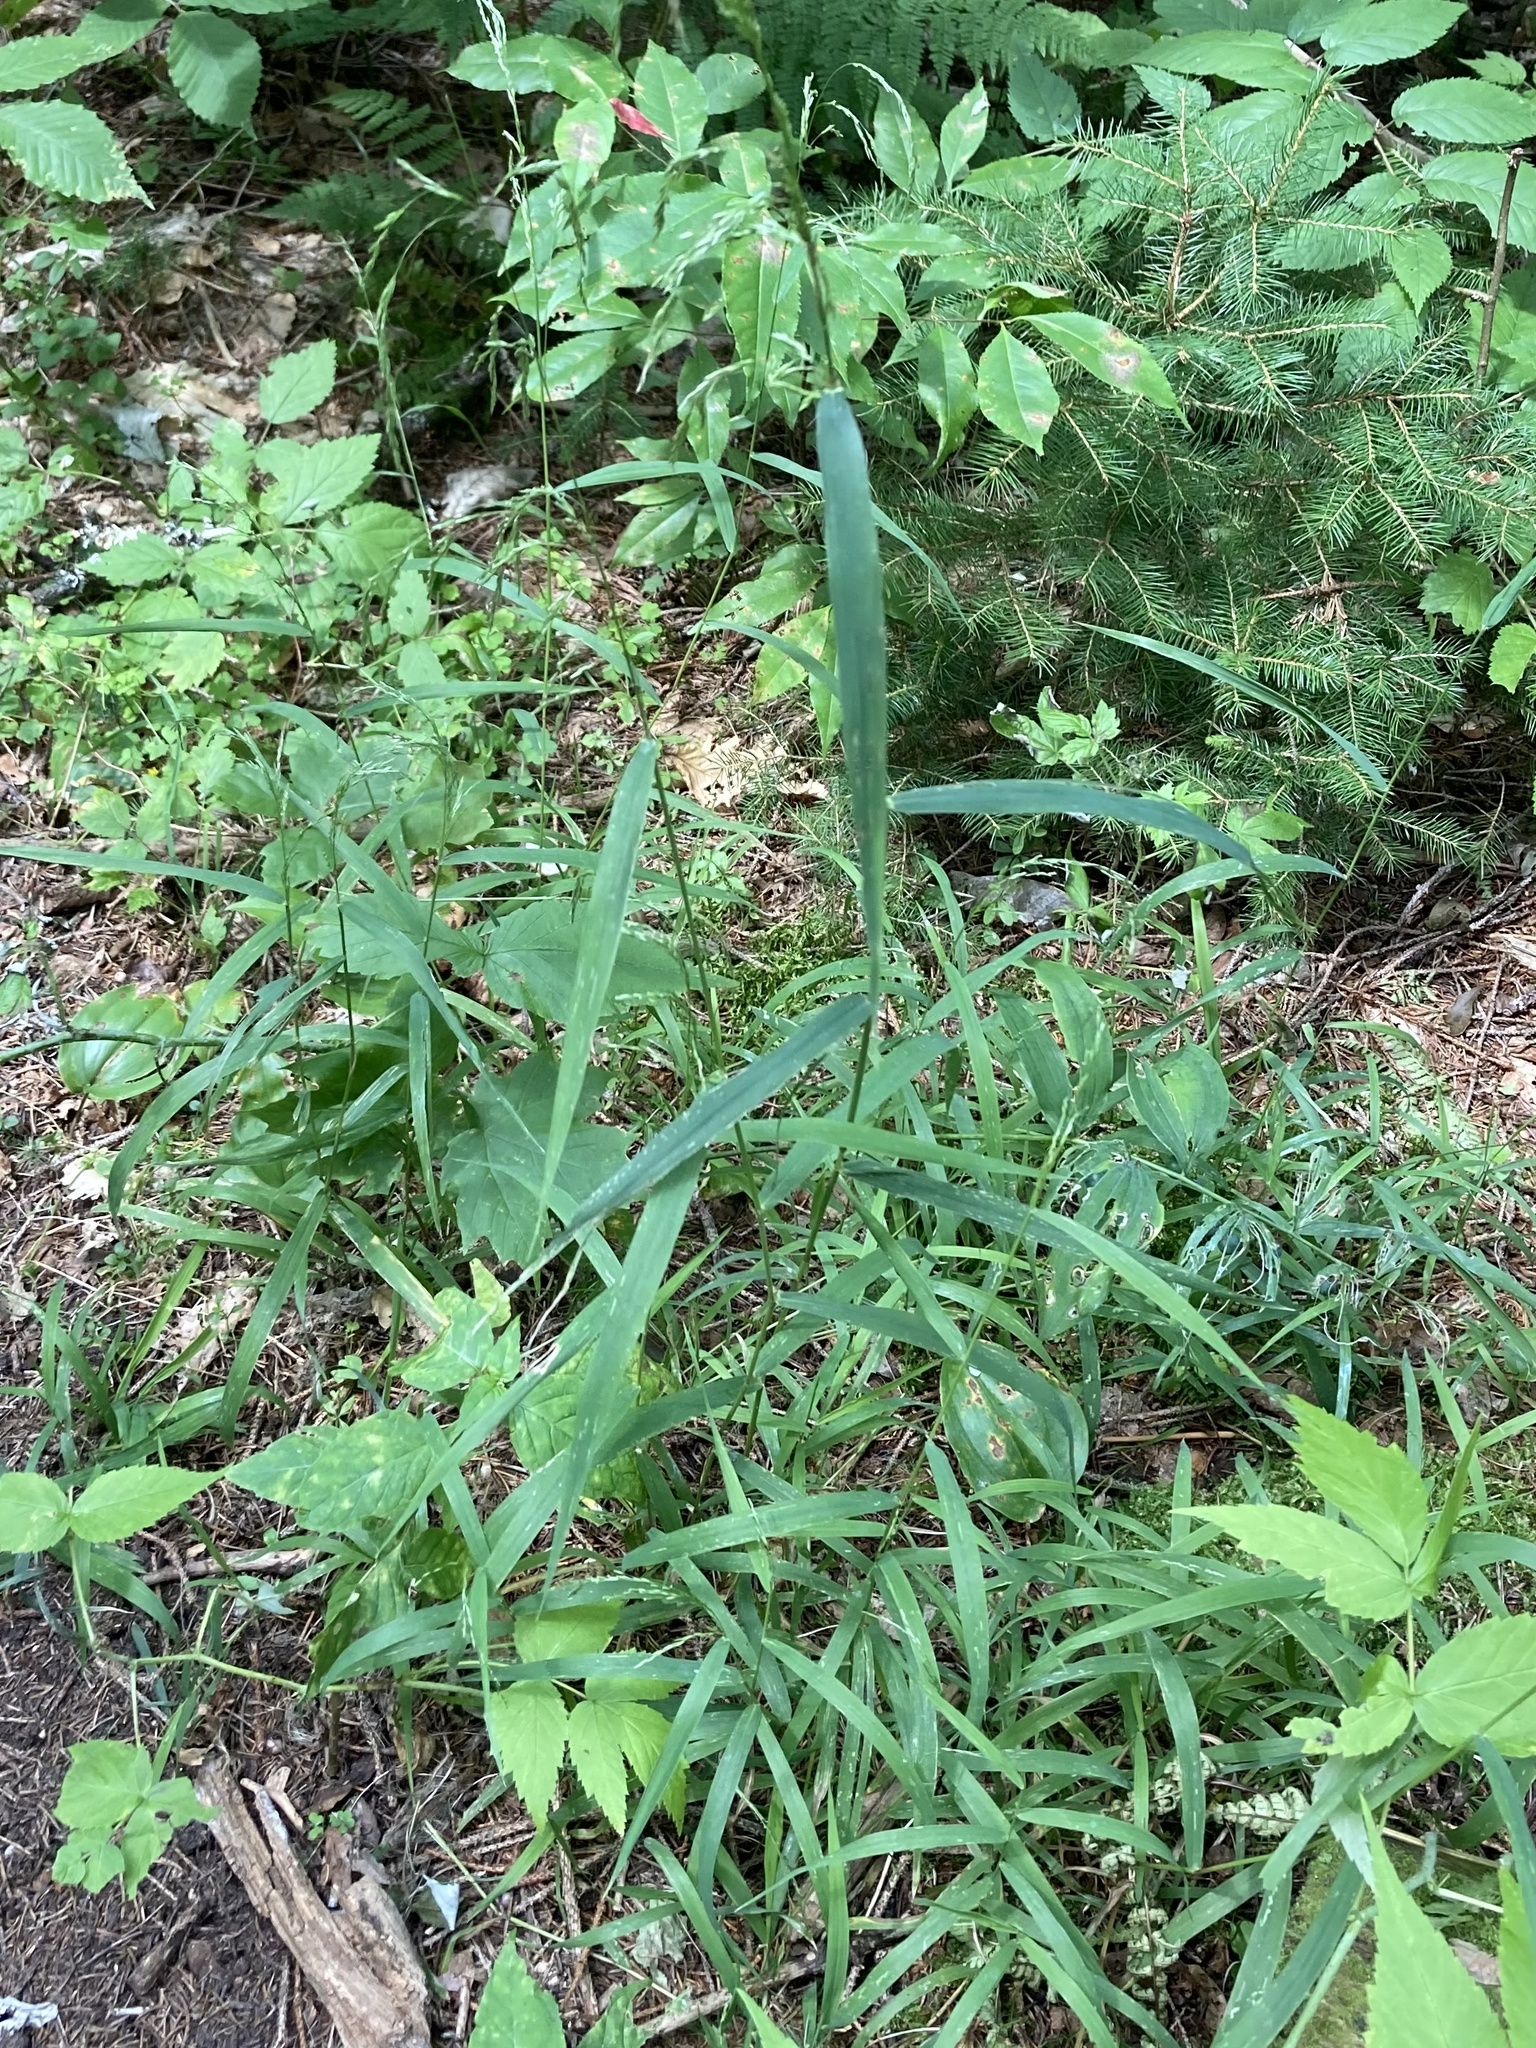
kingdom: Plantae
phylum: Tracheophyta
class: Liliopsida
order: Poales
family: Poaceae
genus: Cinna
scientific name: Cinna latifolia
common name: Drooping woodreed
